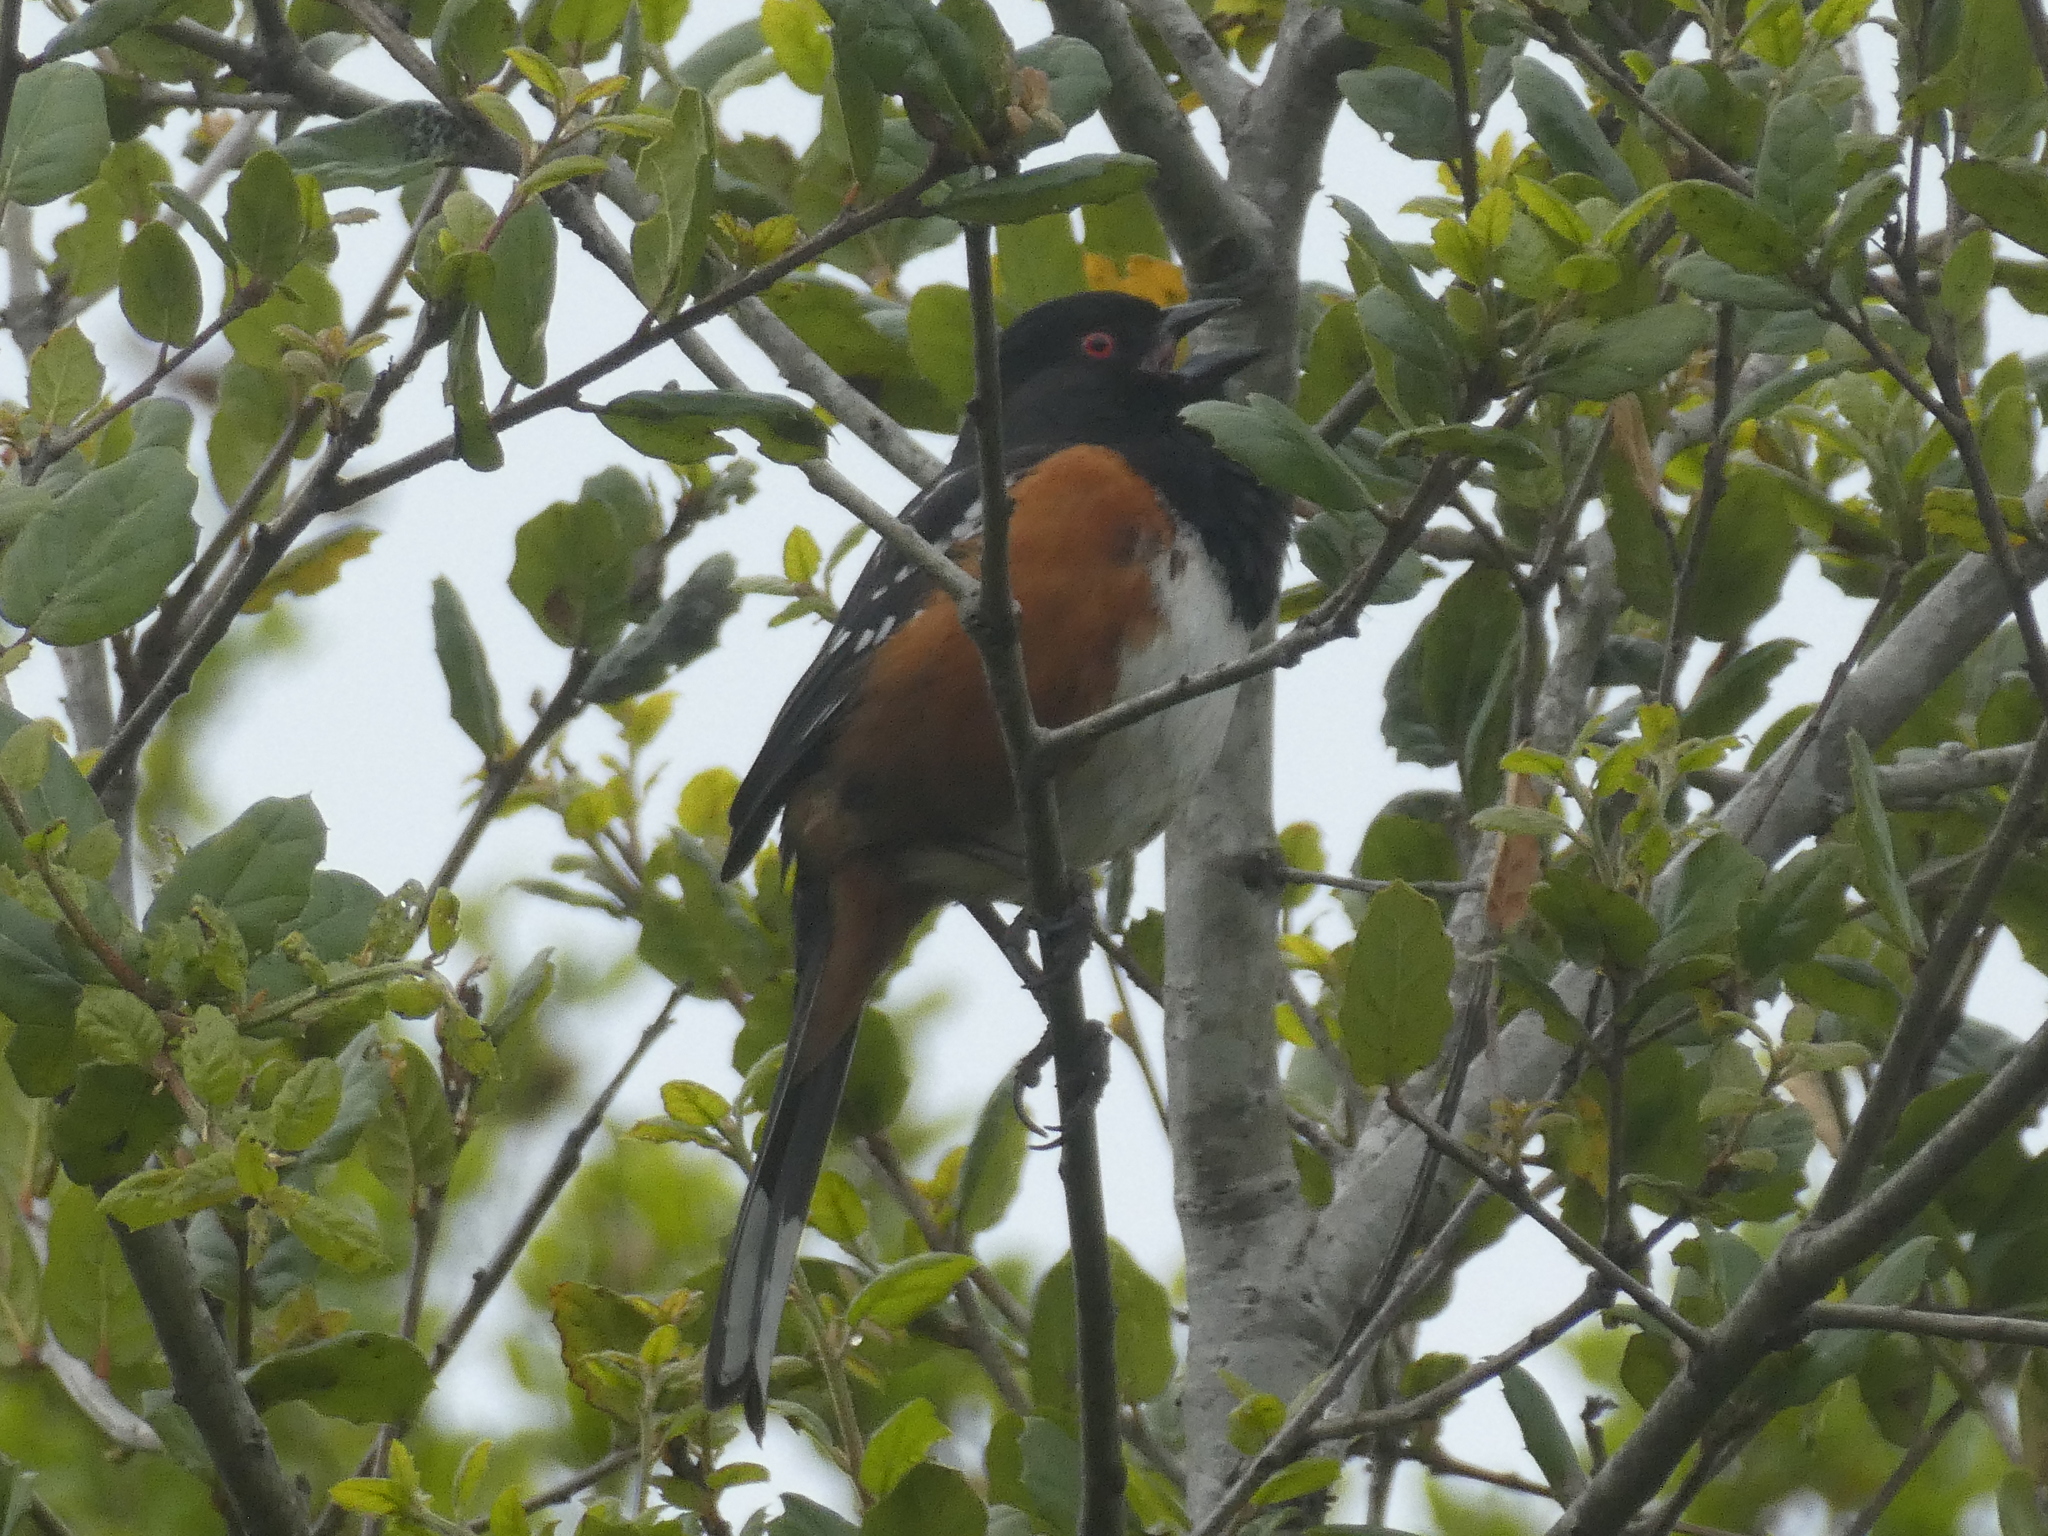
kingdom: Animalia
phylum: Chordata
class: Aves
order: Passeriformes
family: Passerellidae
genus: Pipilo
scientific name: Pipilo maculatus
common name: Spotted towhee
